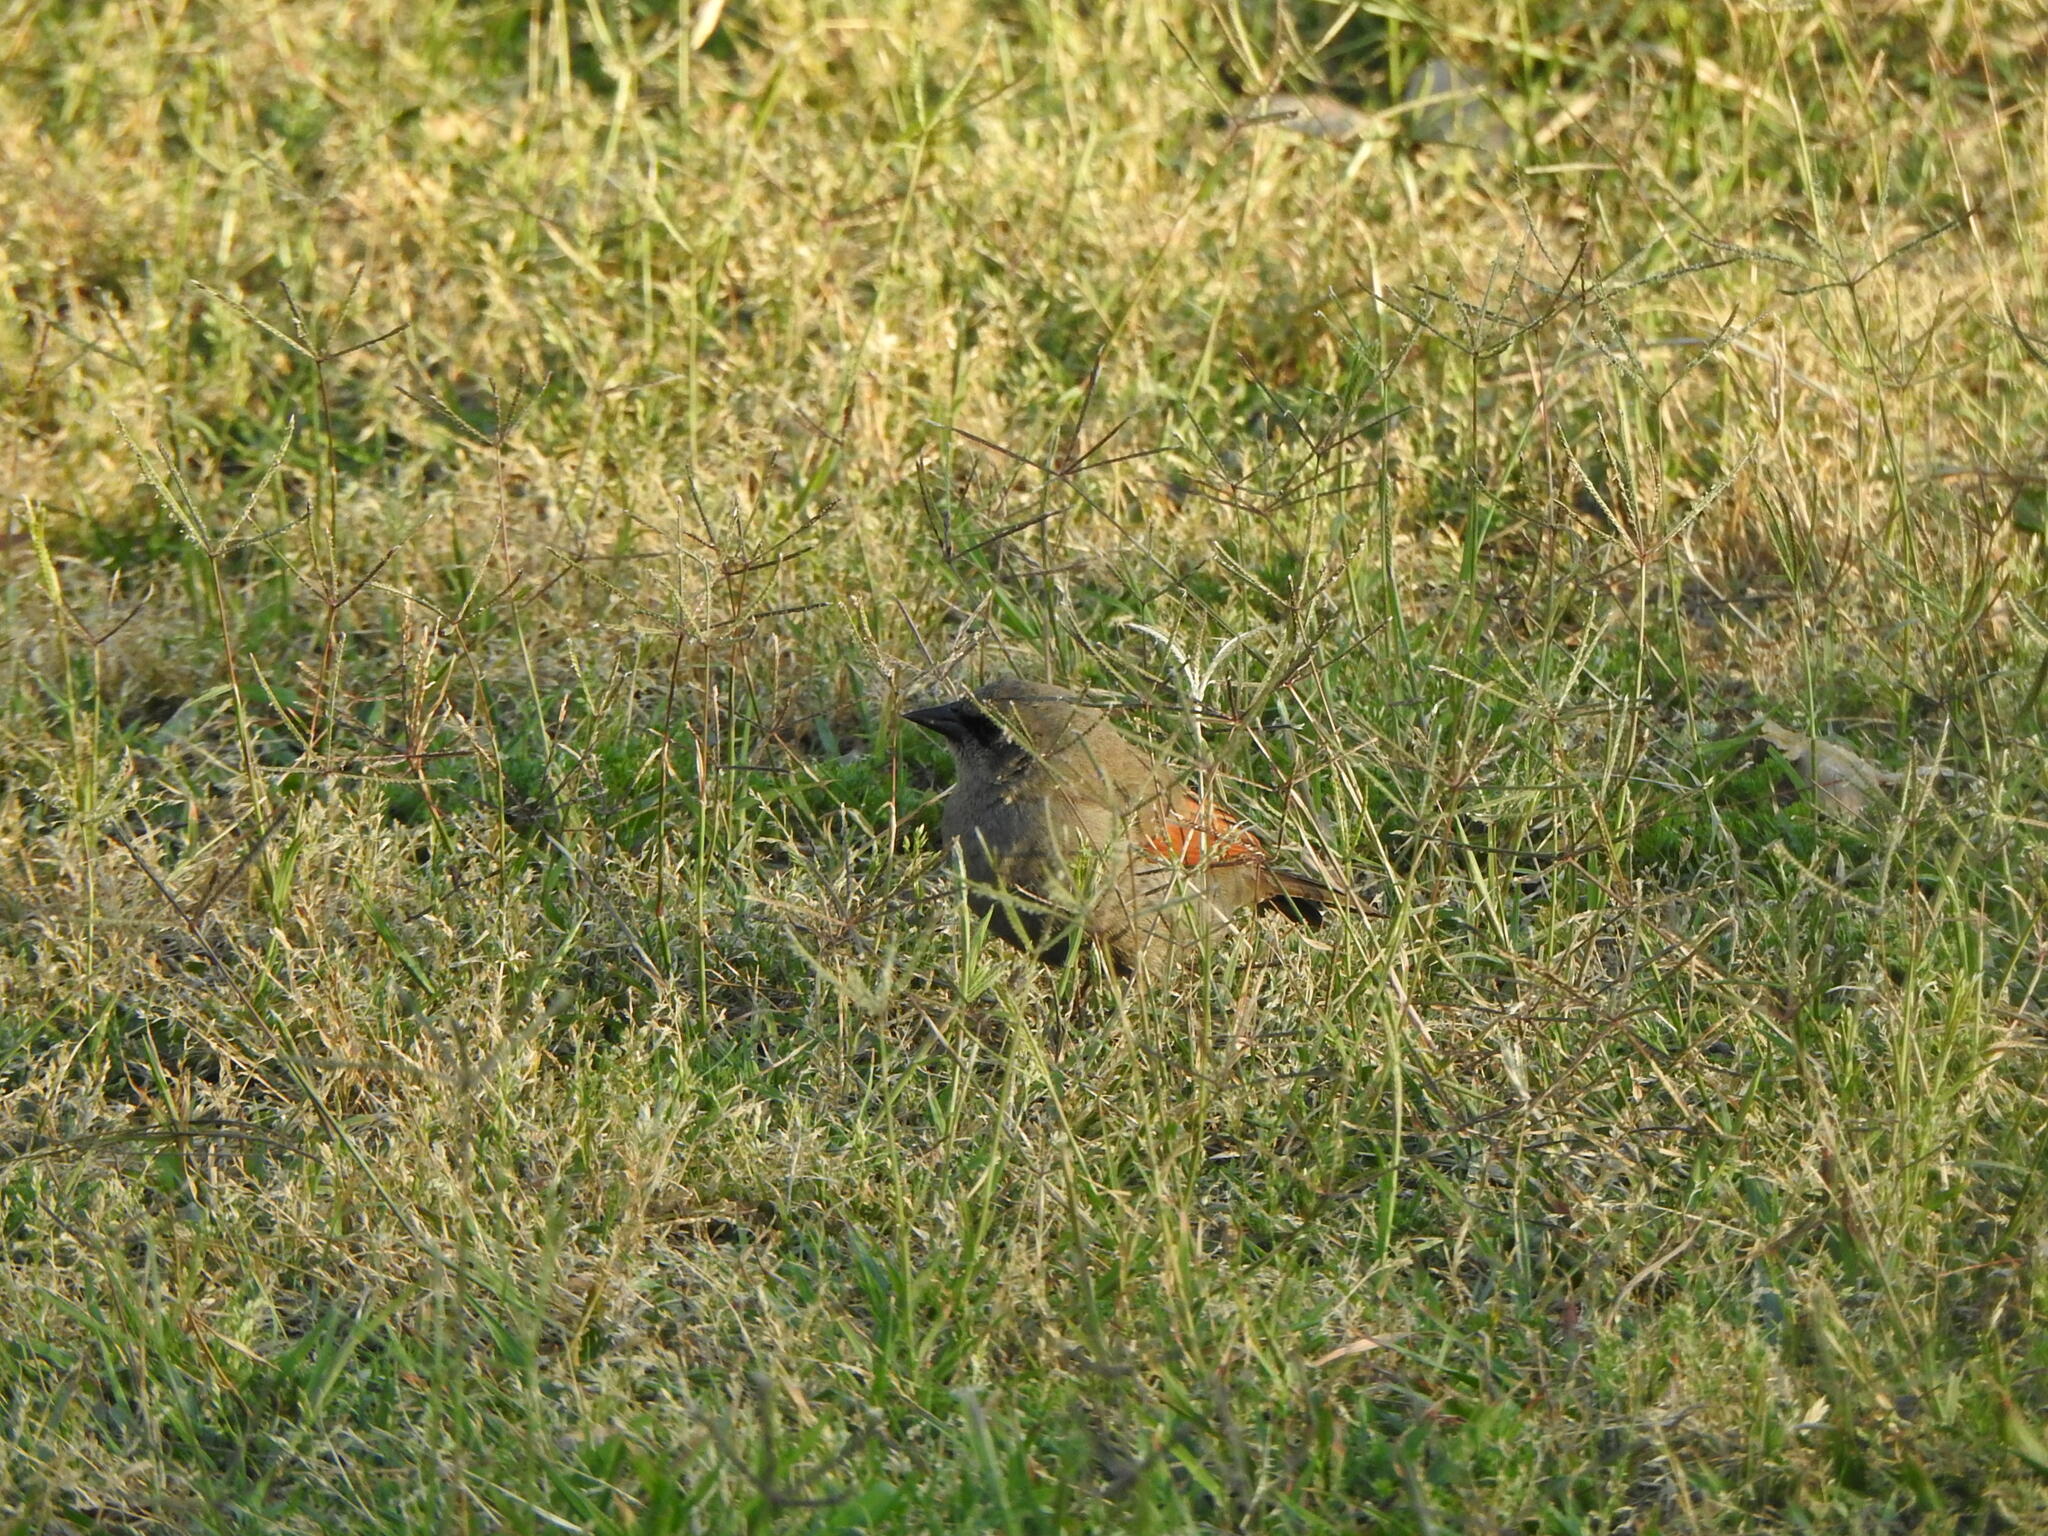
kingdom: Animalia
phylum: Chordata
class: Aves
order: Passeriformes
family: Icteridae
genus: Agelaioides
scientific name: Agelaioides badius
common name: Baywing
